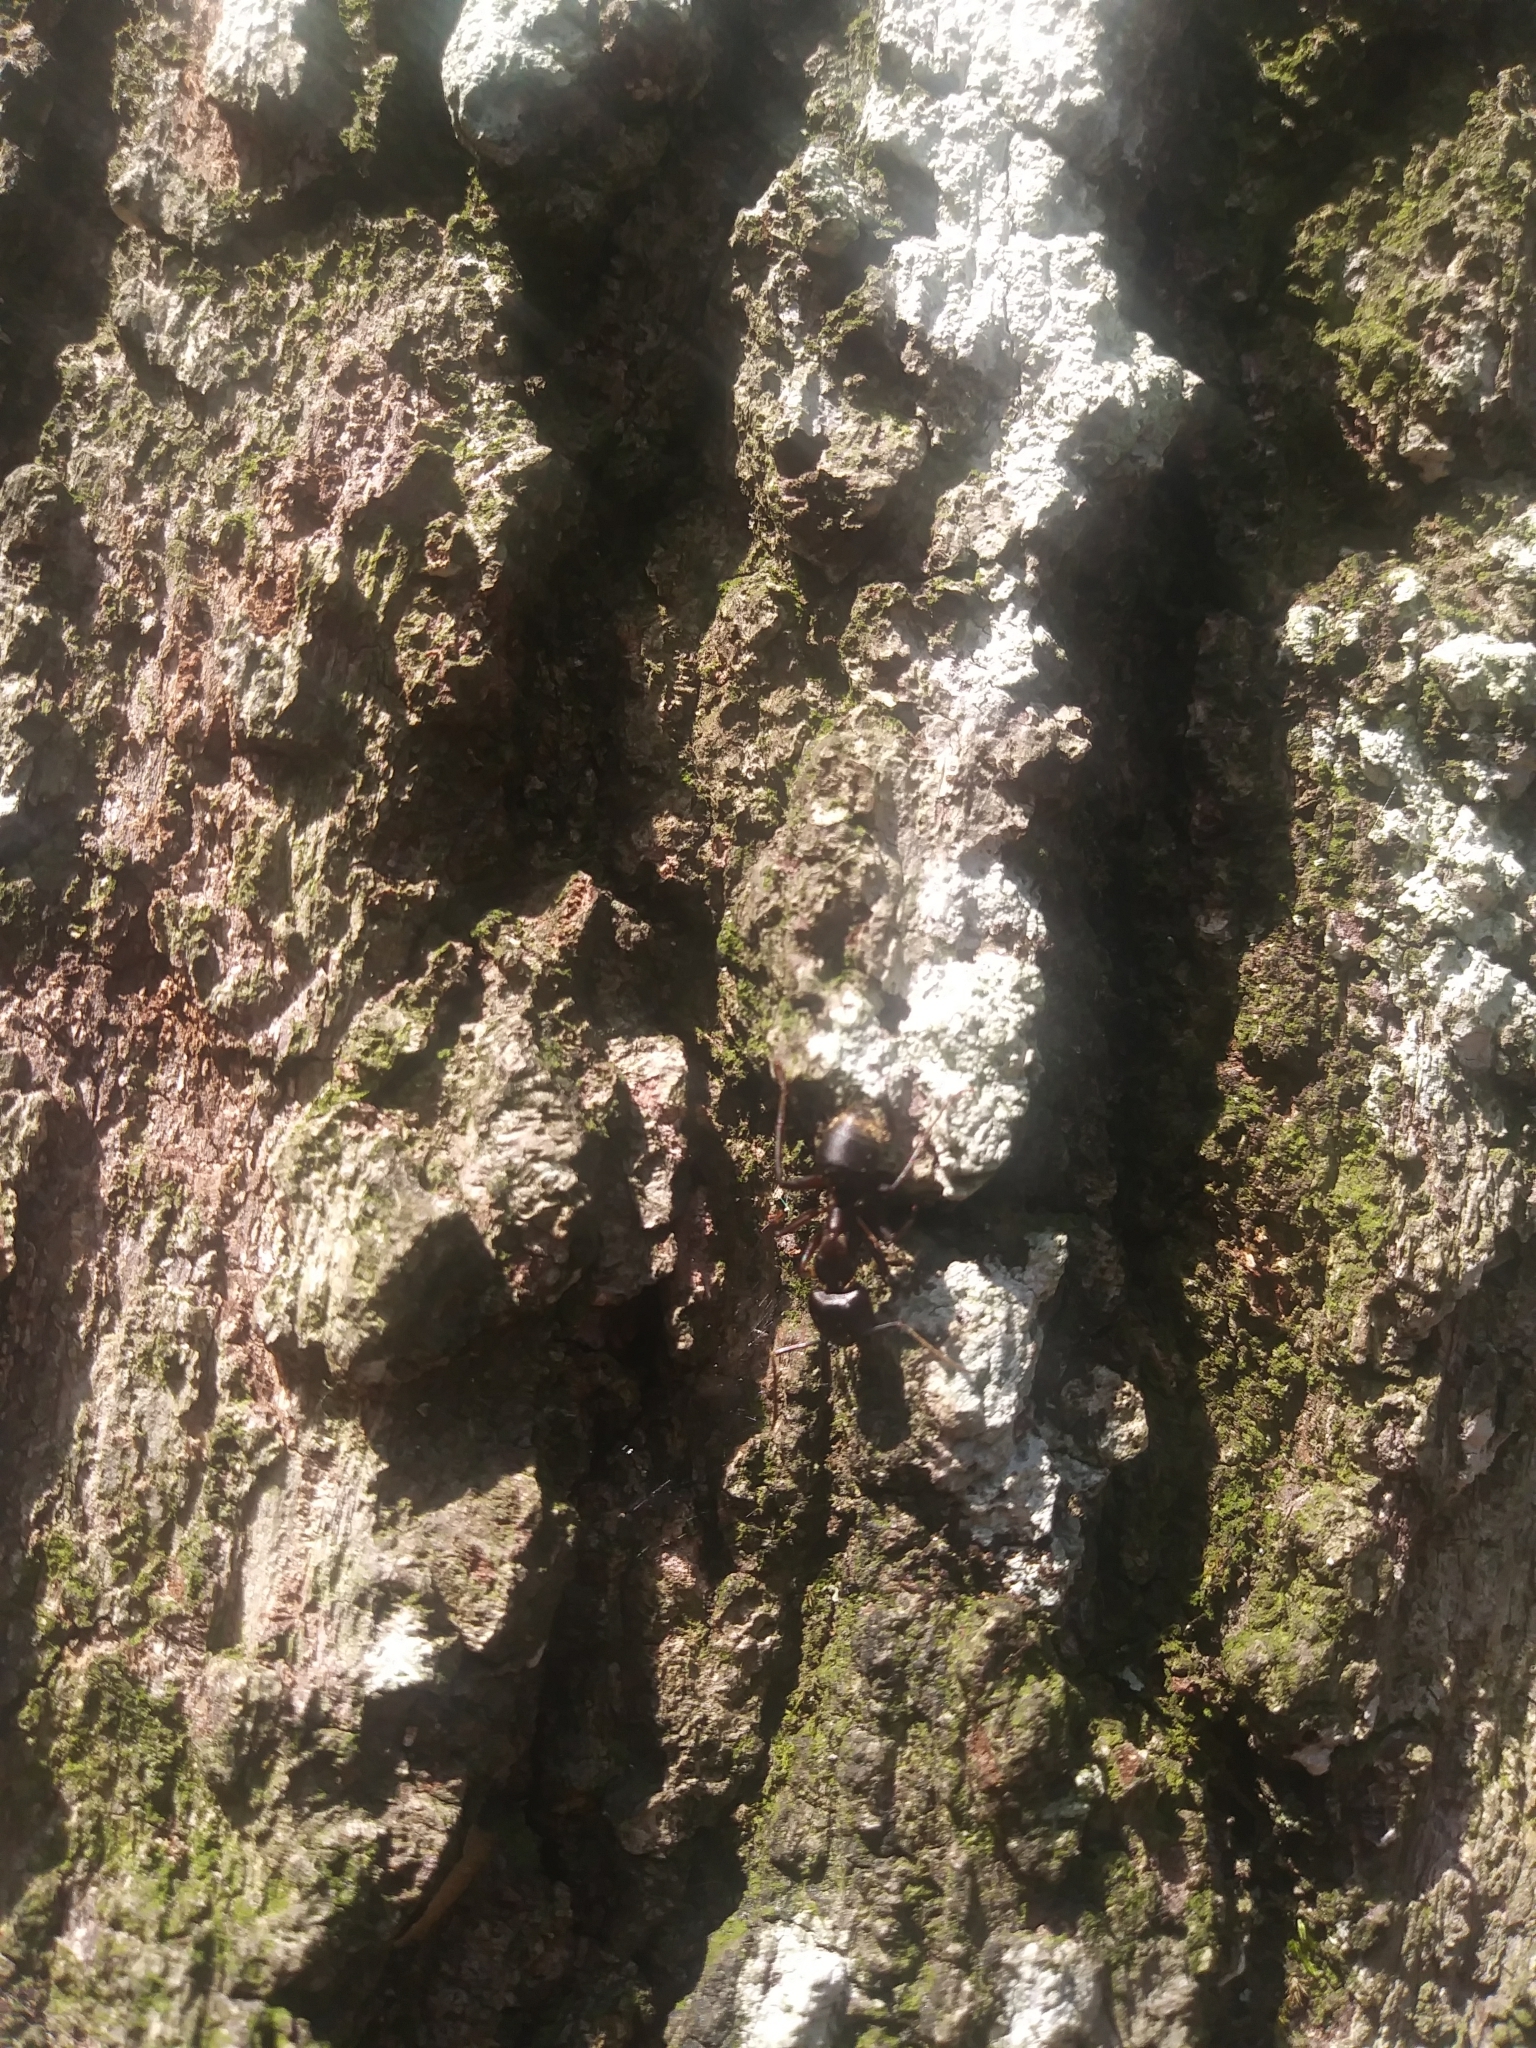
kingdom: Animalia
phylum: Arthropoda
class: Insecta
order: Hymenoptera
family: Formicidae
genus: Camponotus
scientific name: Camponotus chromaiodes
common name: Red carpenter ant
